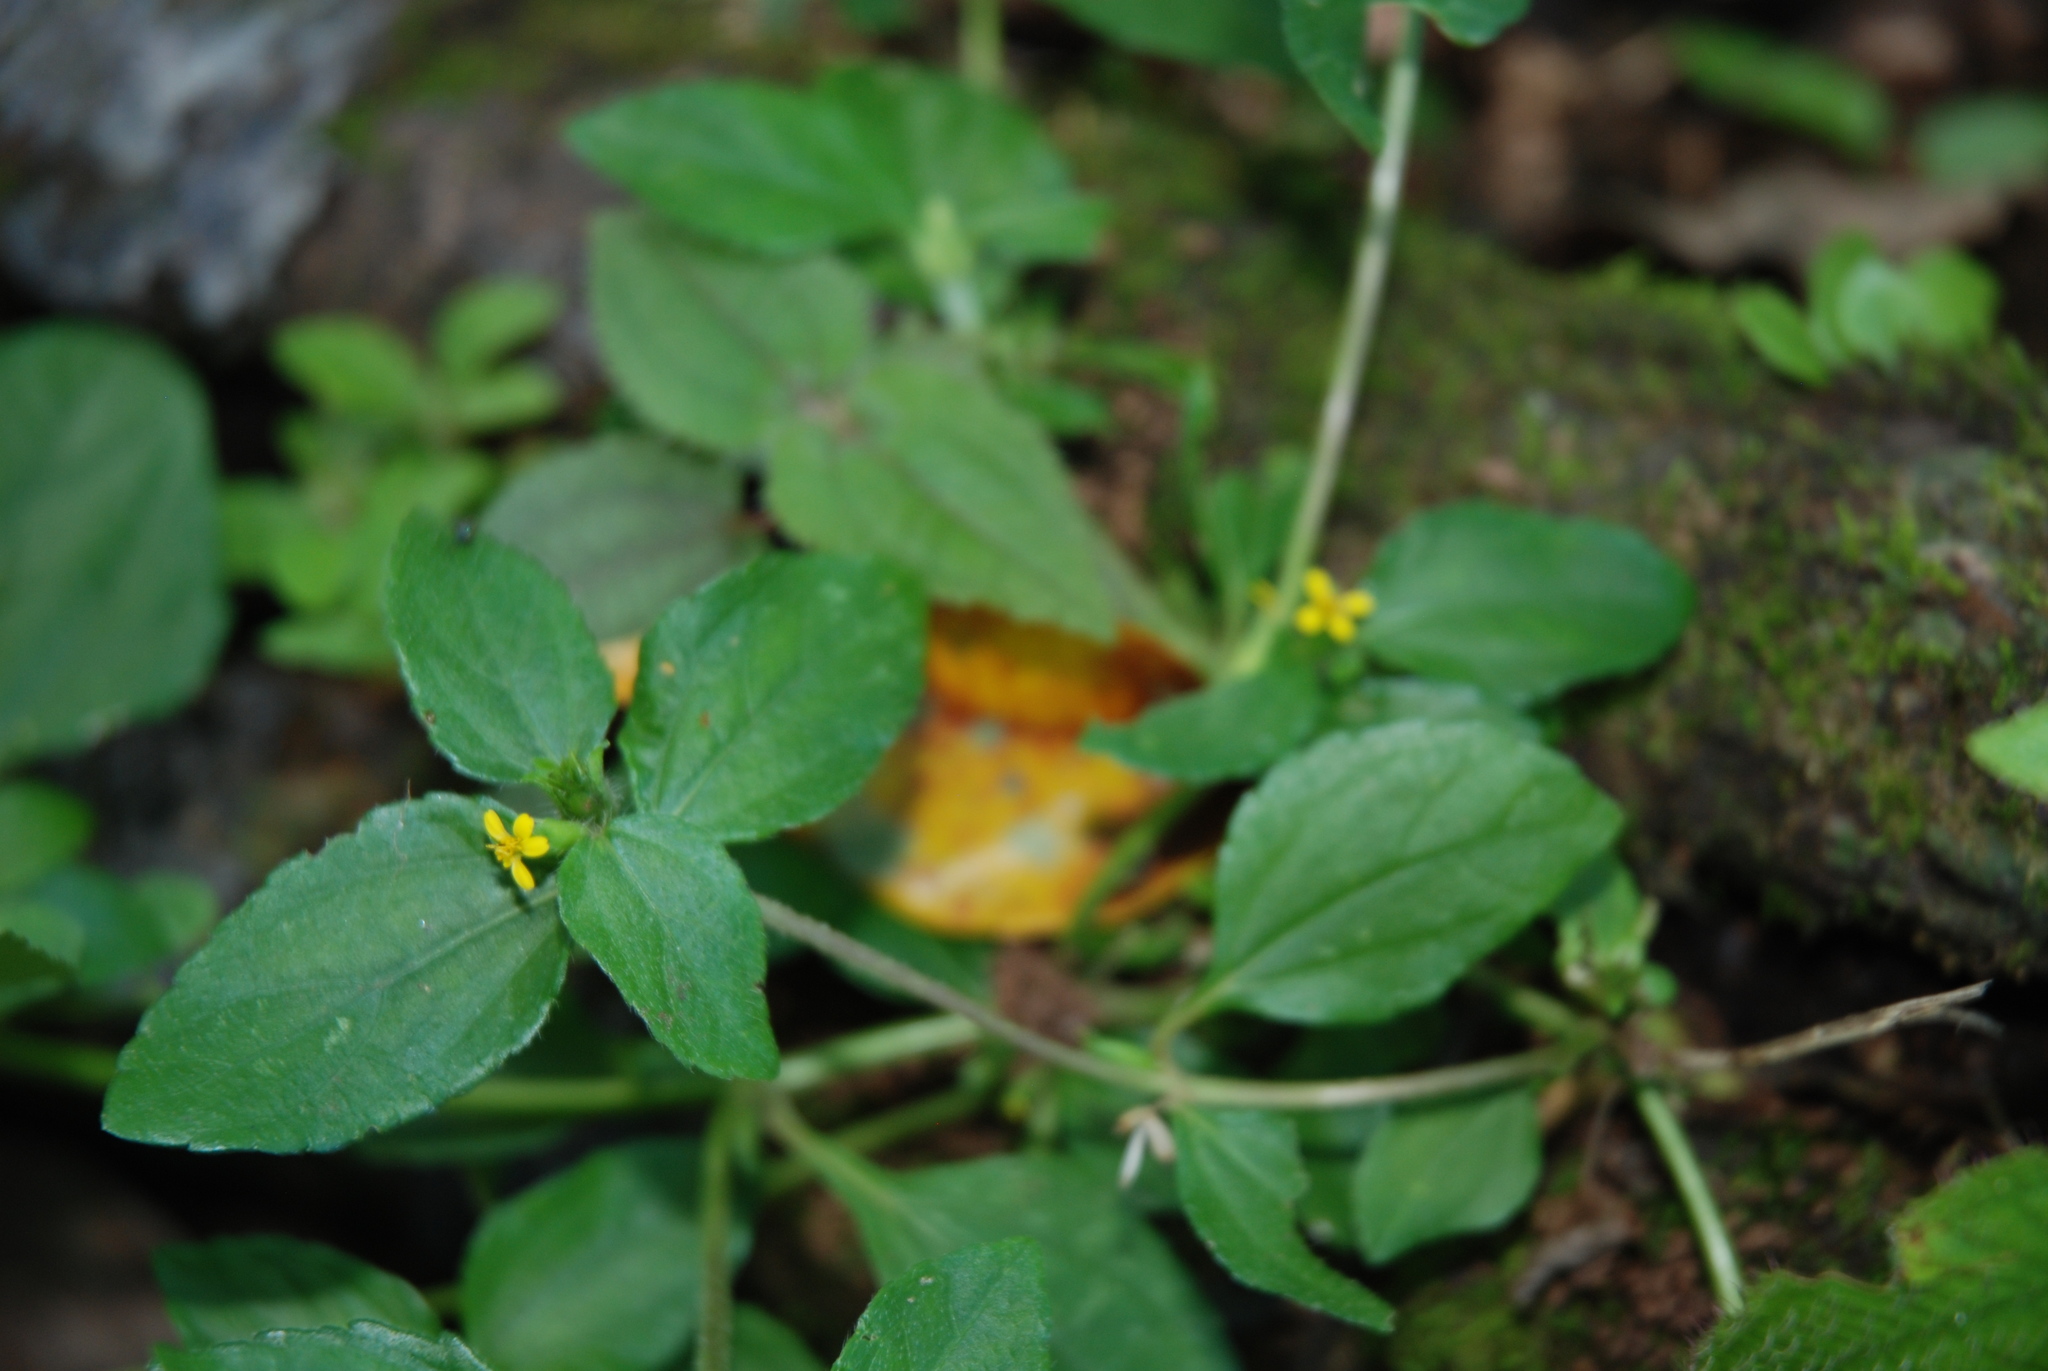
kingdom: Plantae
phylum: Tracheophyta
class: Magnoliopsida
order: Asterales
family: Asteraceae
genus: Synedrella
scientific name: Synedrella nodiflora
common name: Nodeweed
